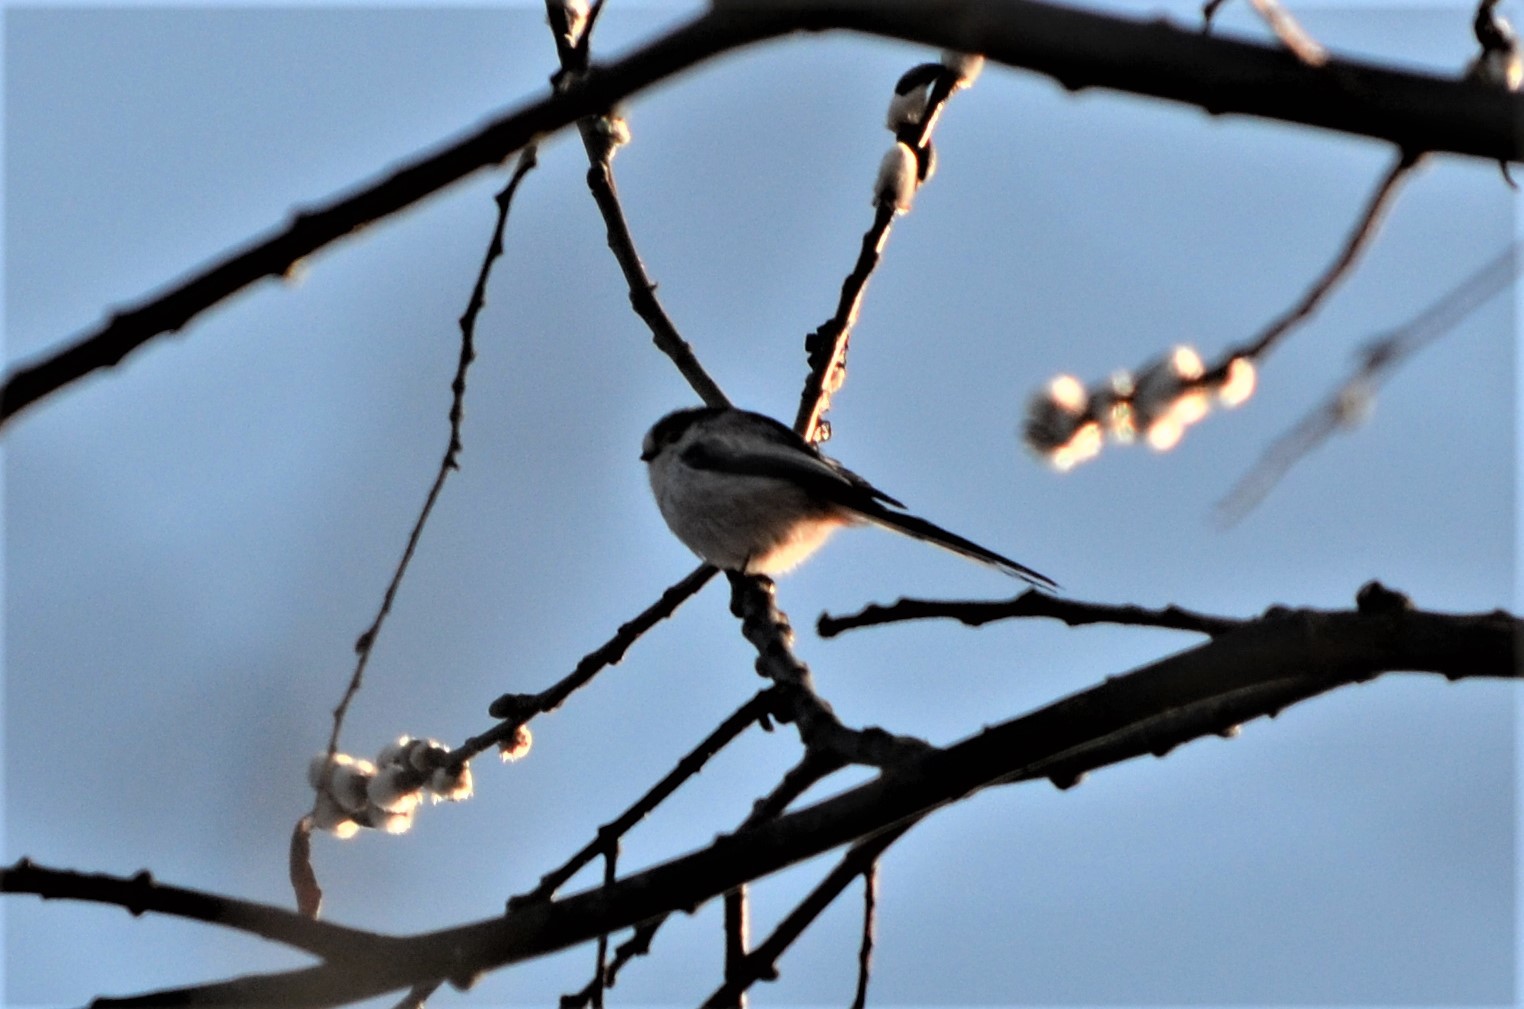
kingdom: Animalia
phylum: Chordata
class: Aves
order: Passeriformes
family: Aegithalidae
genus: Aegithalos
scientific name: Aegithalos caudatus
